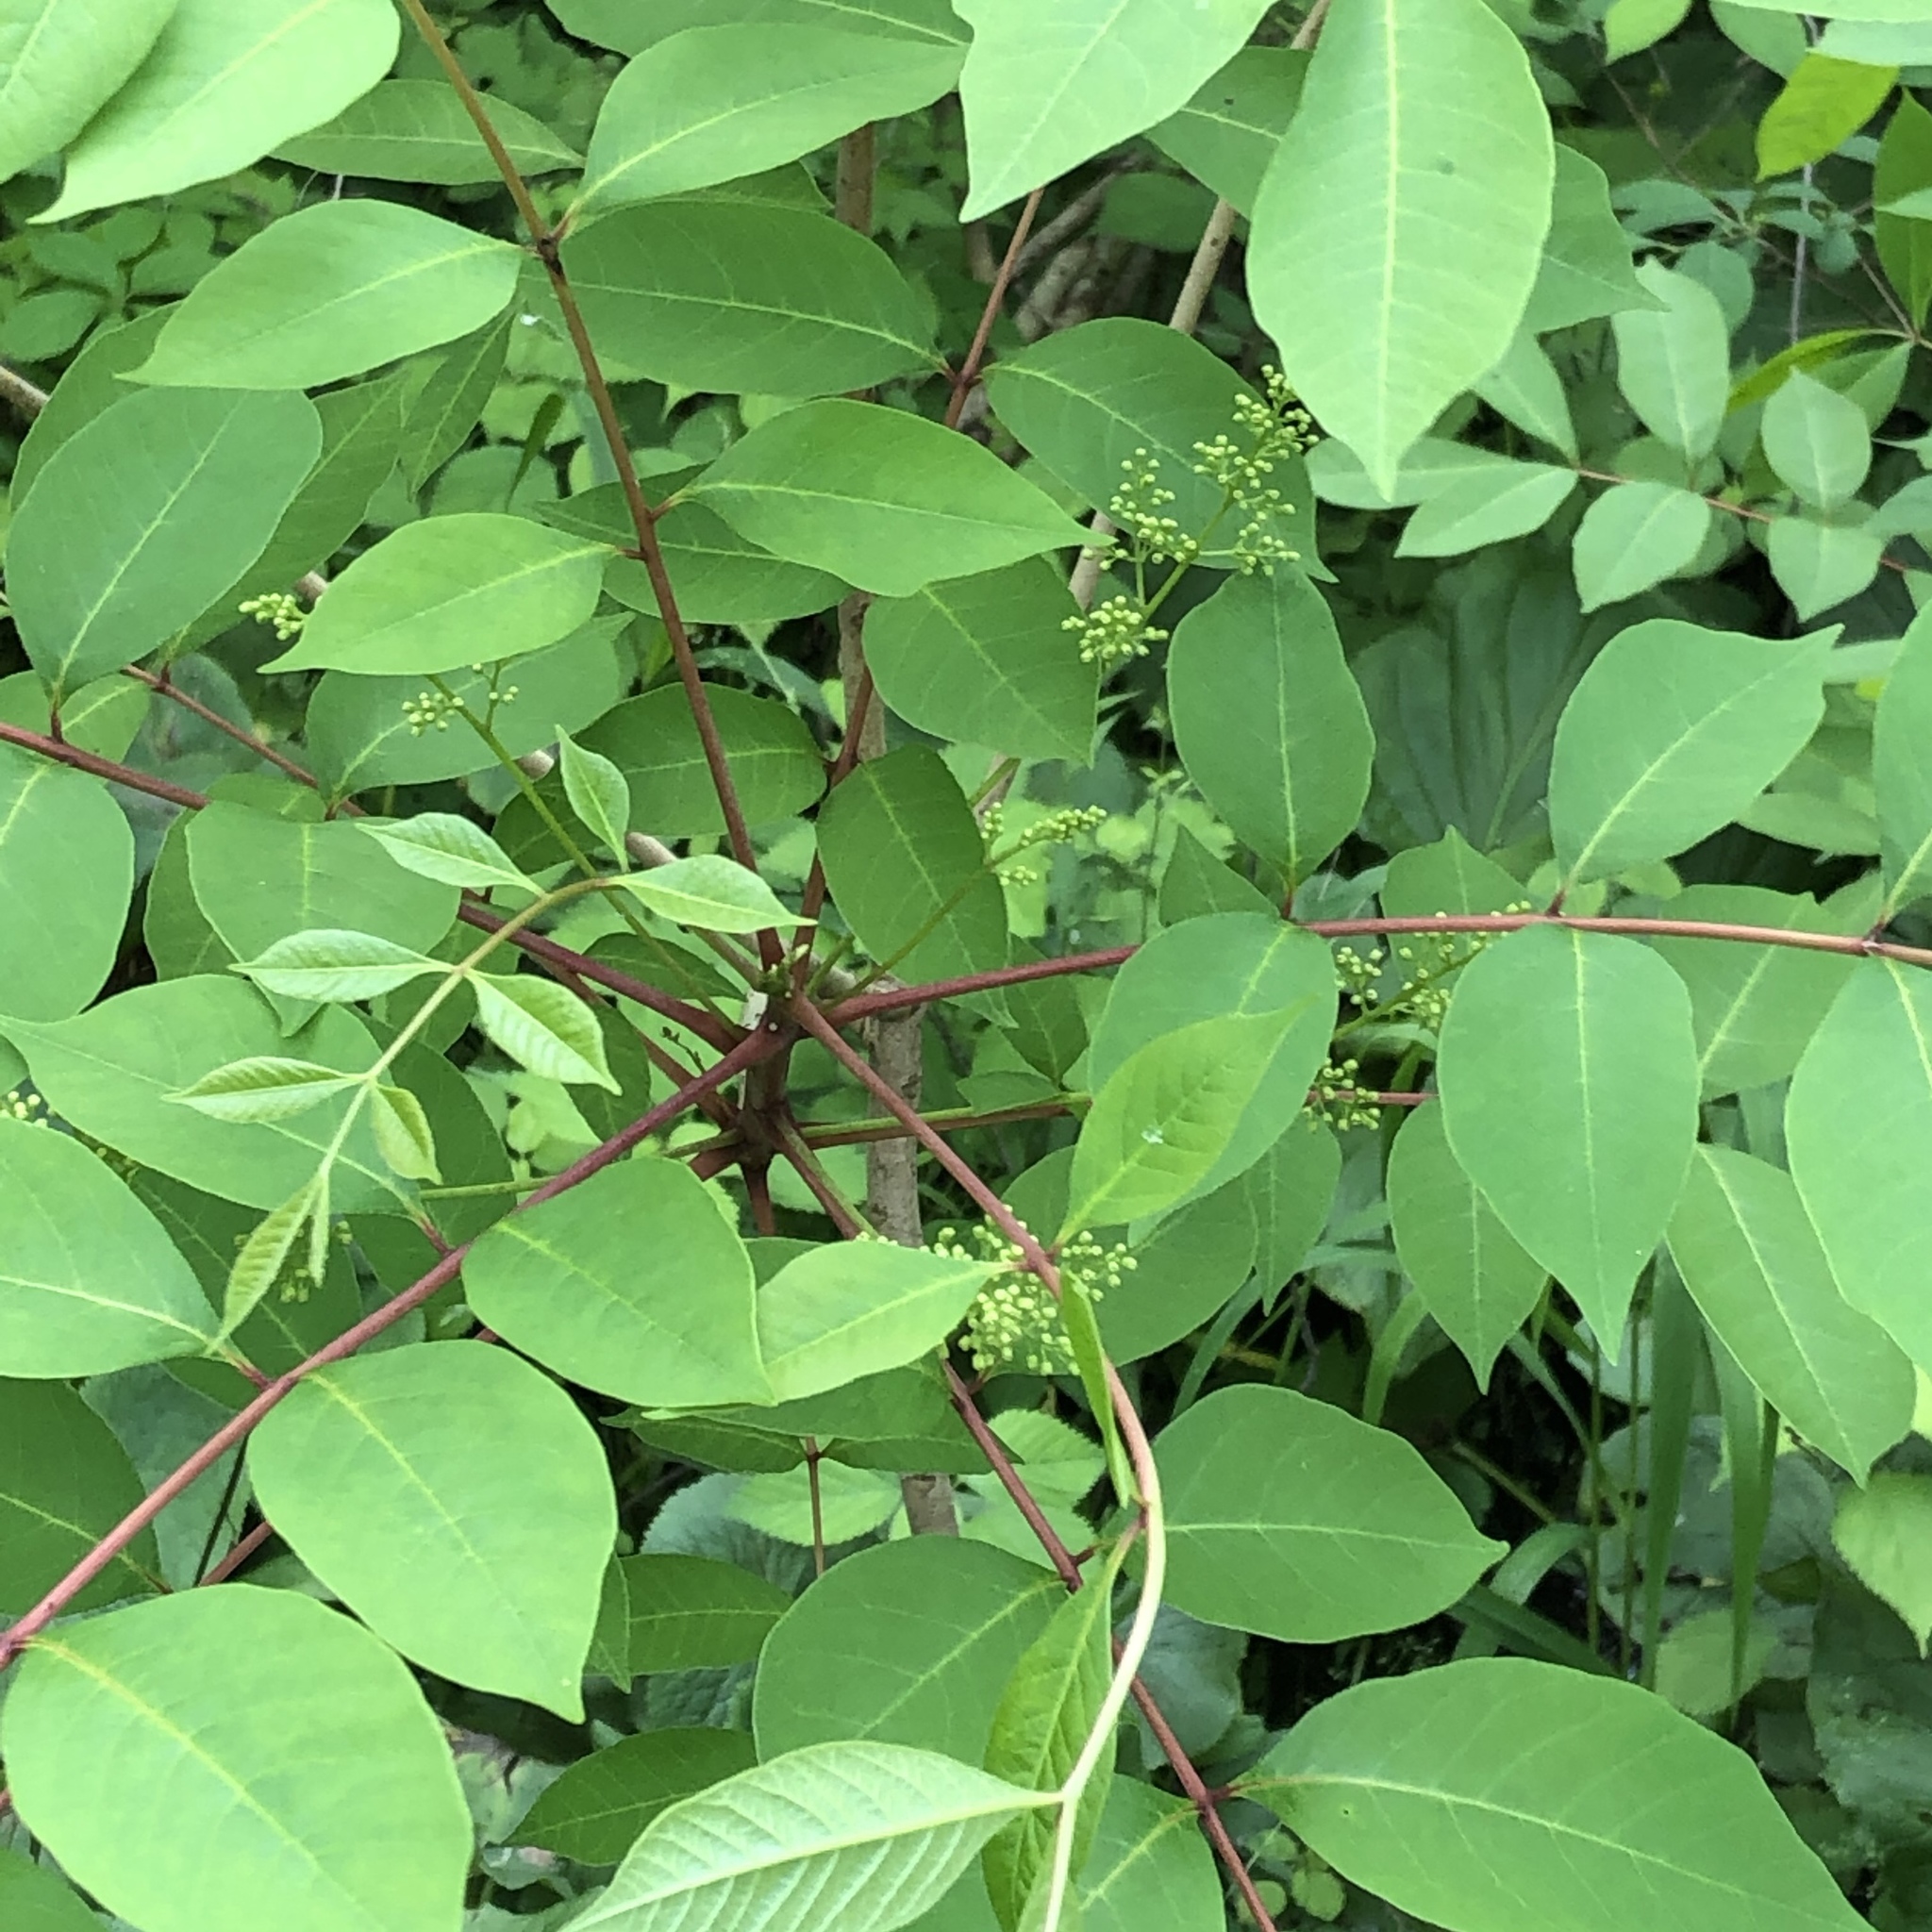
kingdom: Plantae
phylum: Tracheophyta
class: Magnoliopsida
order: Sapindales
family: Anacardiaceae
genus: Toxicodendron
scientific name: Toxicodendron vernix
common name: Poison sumac
